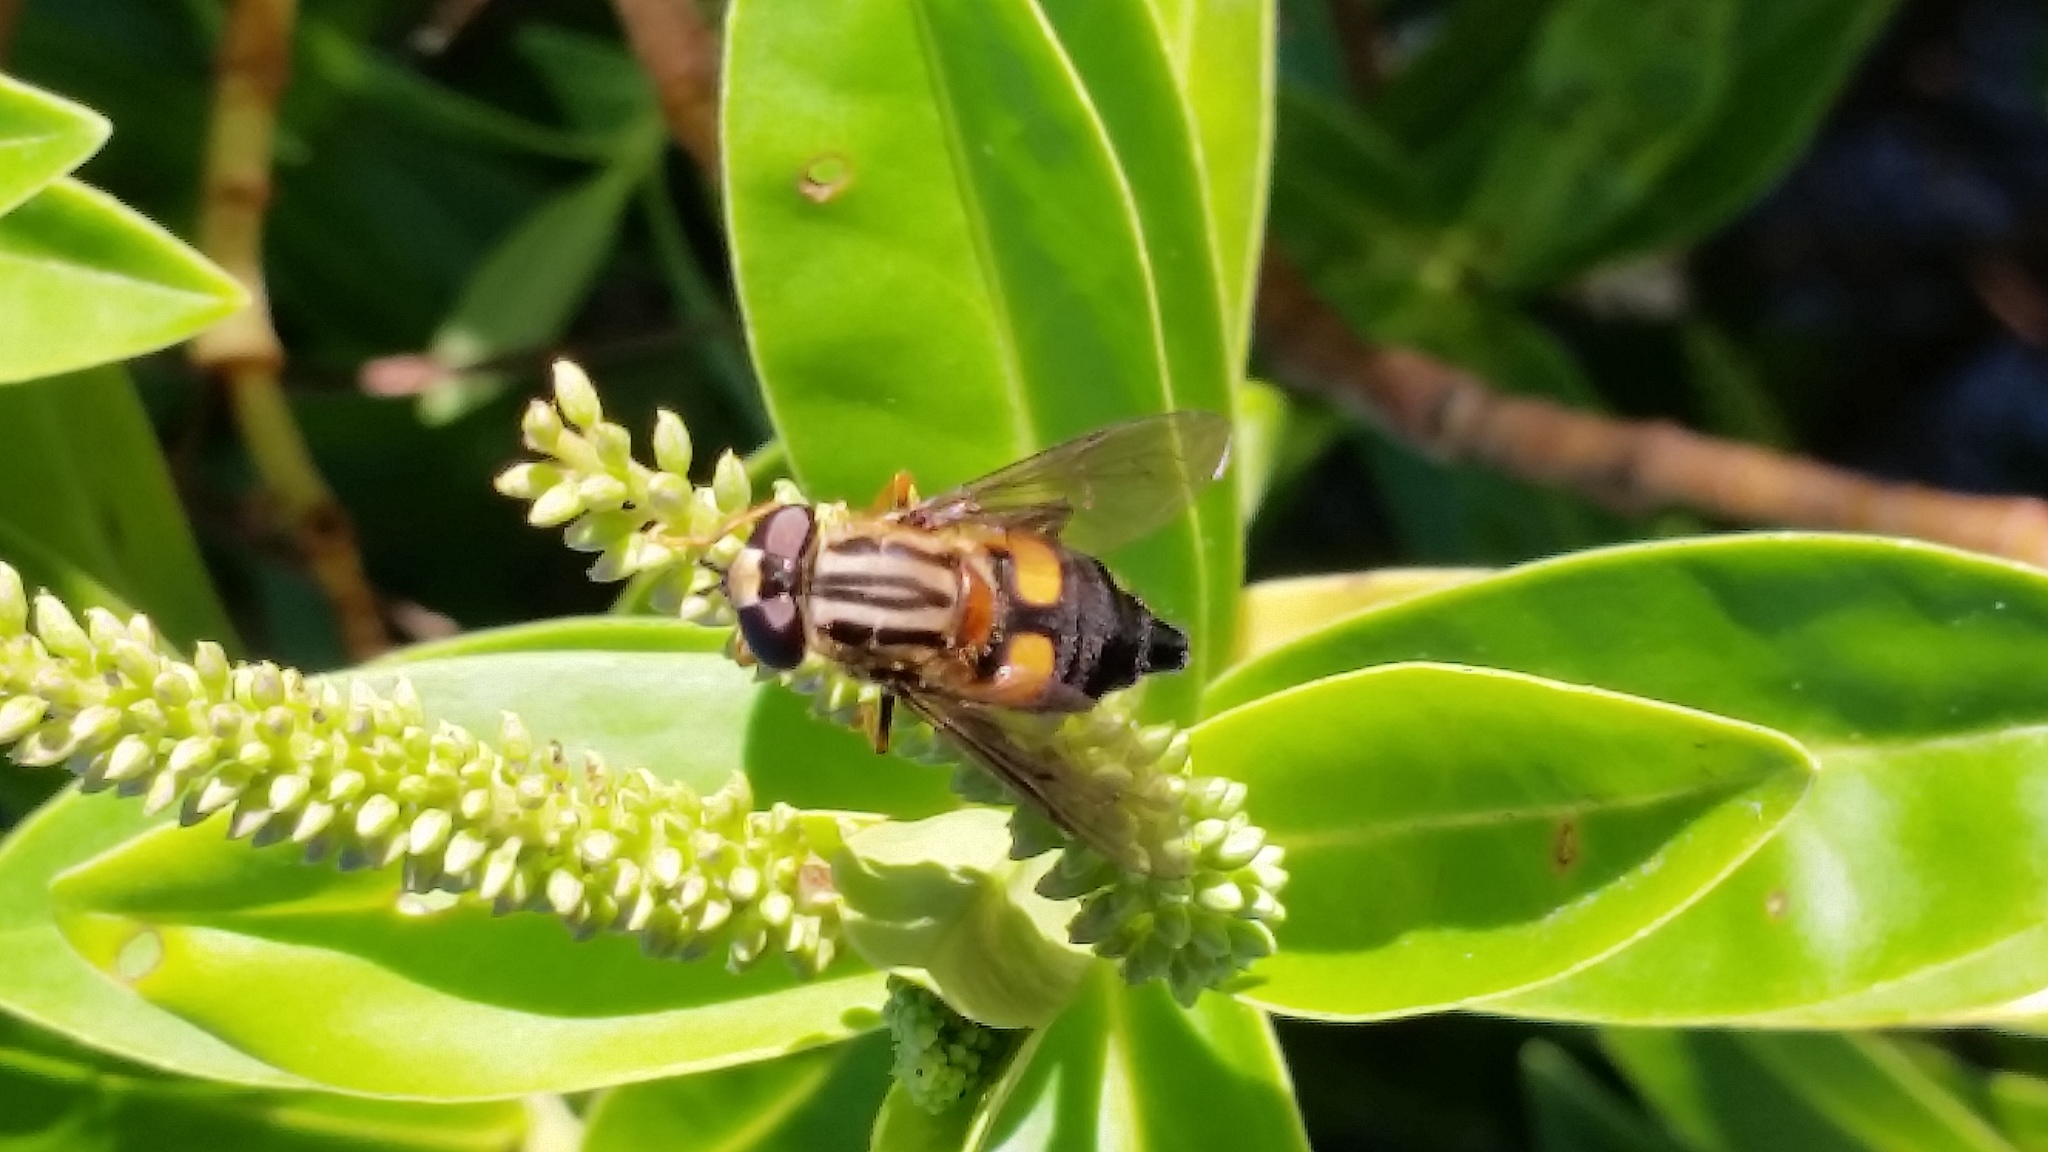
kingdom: Animalia
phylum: Arthropoda
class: Insecta
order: Diptera
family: Syrphidae
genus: Helophilus
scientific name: Helophilus antipodus
